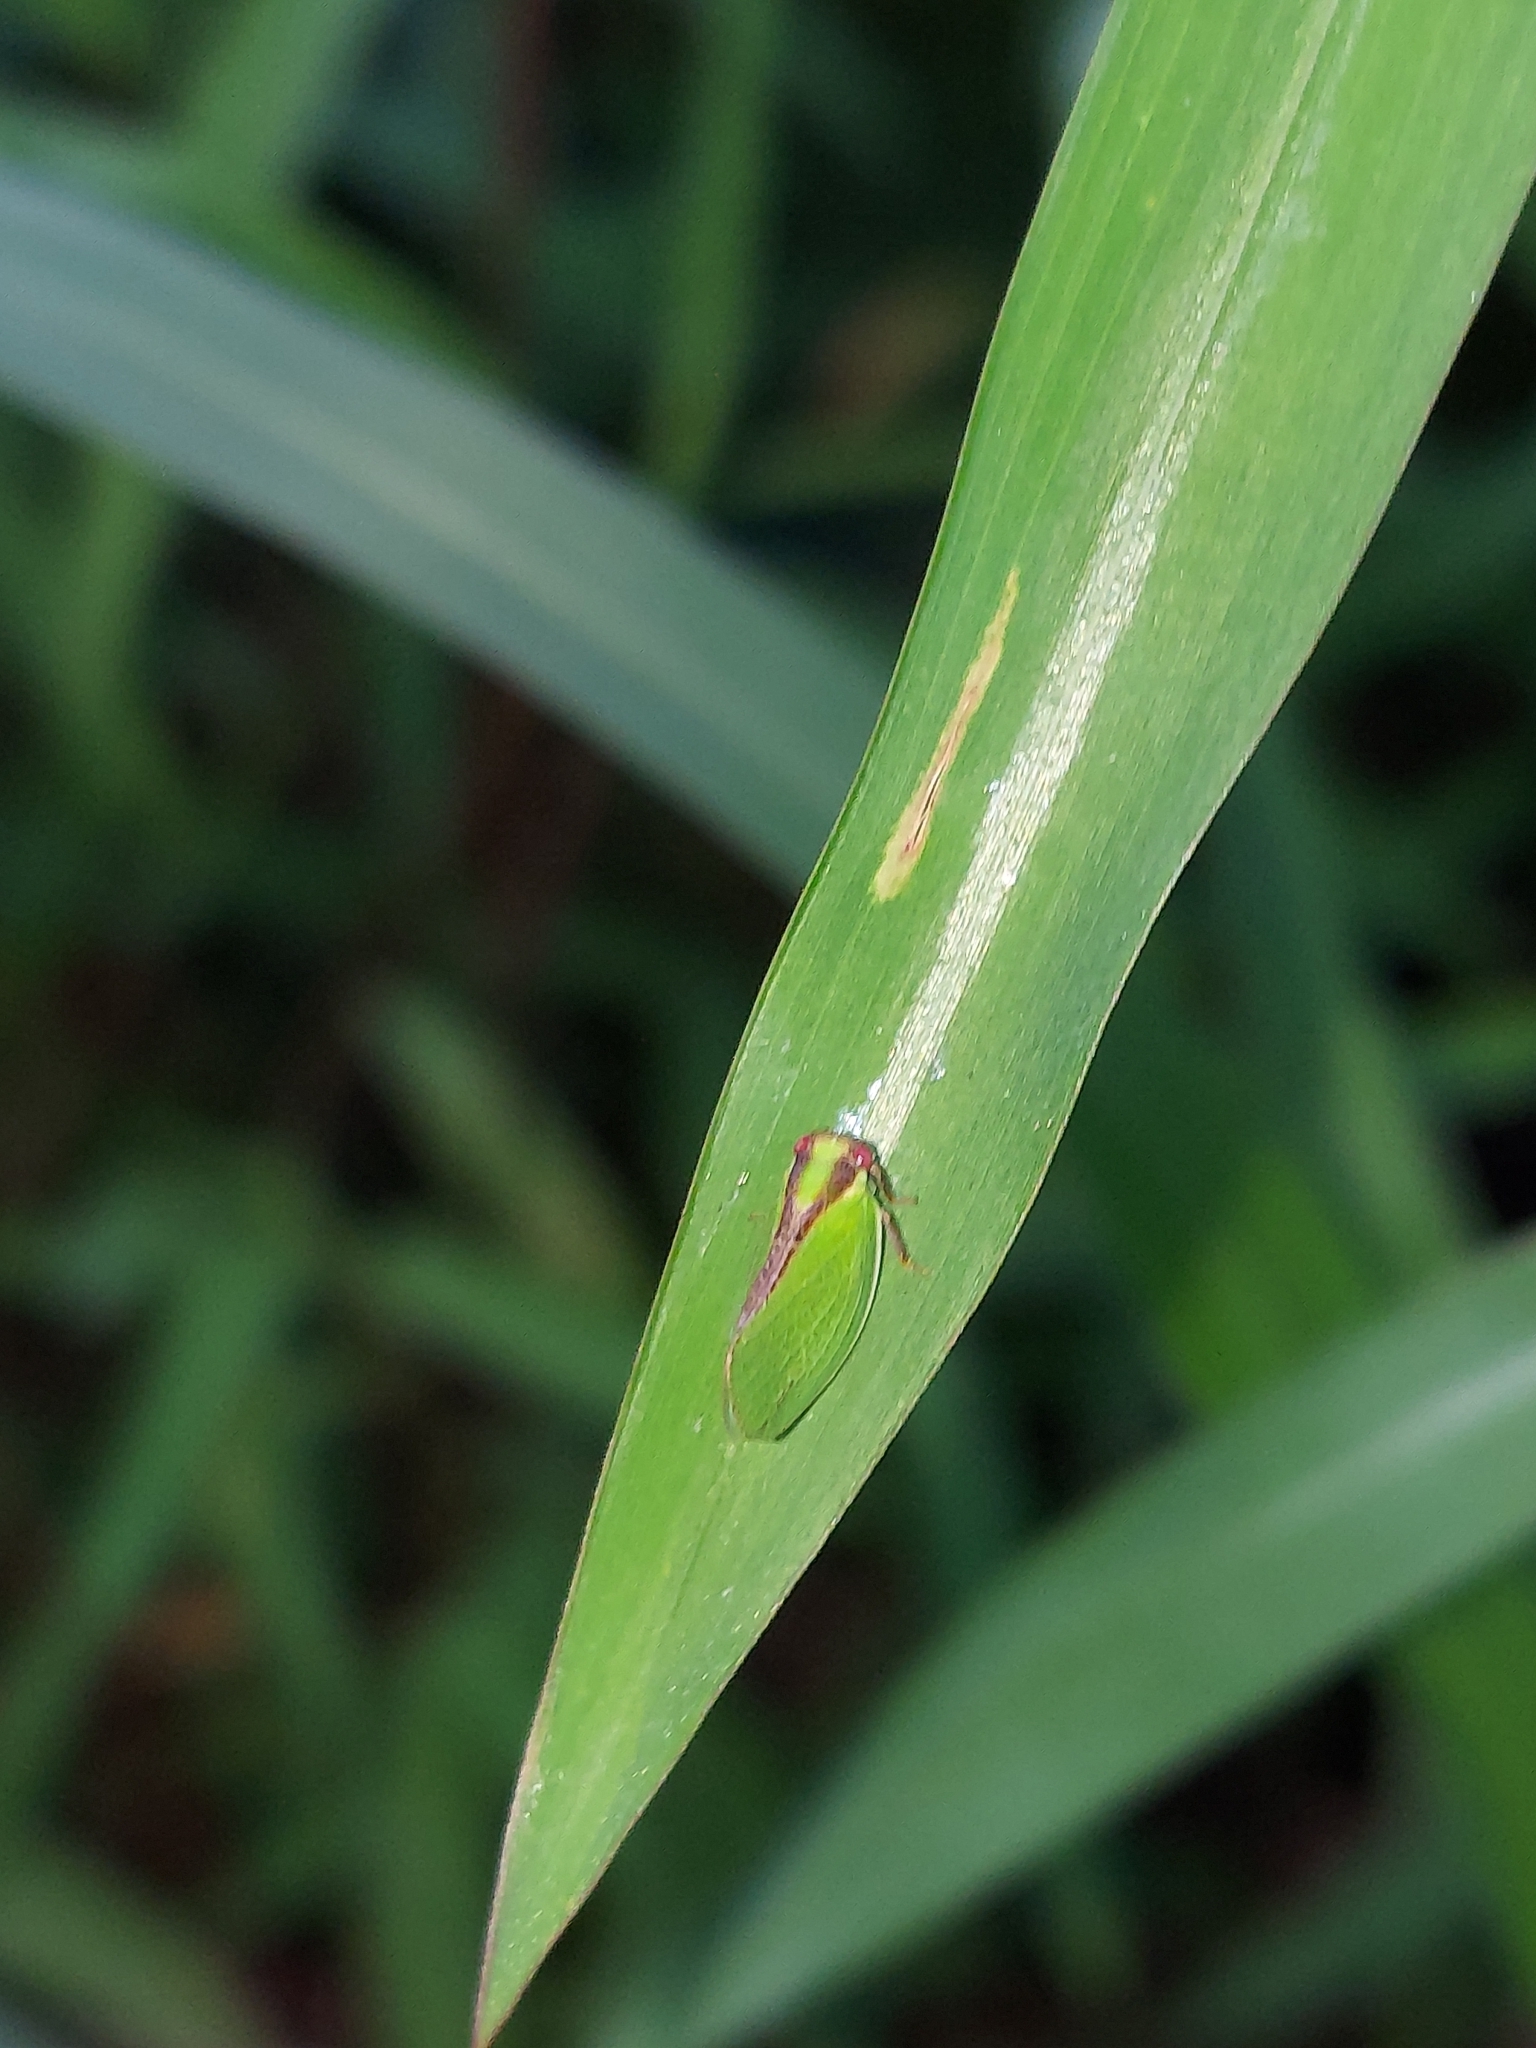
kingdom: Animalia
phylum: Arthropoda
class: Insecta
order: Hemiptera
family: Acanaloniidae
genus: Acanalonia
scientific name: Acanalonia bivittata
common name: Two-striped planthopper
